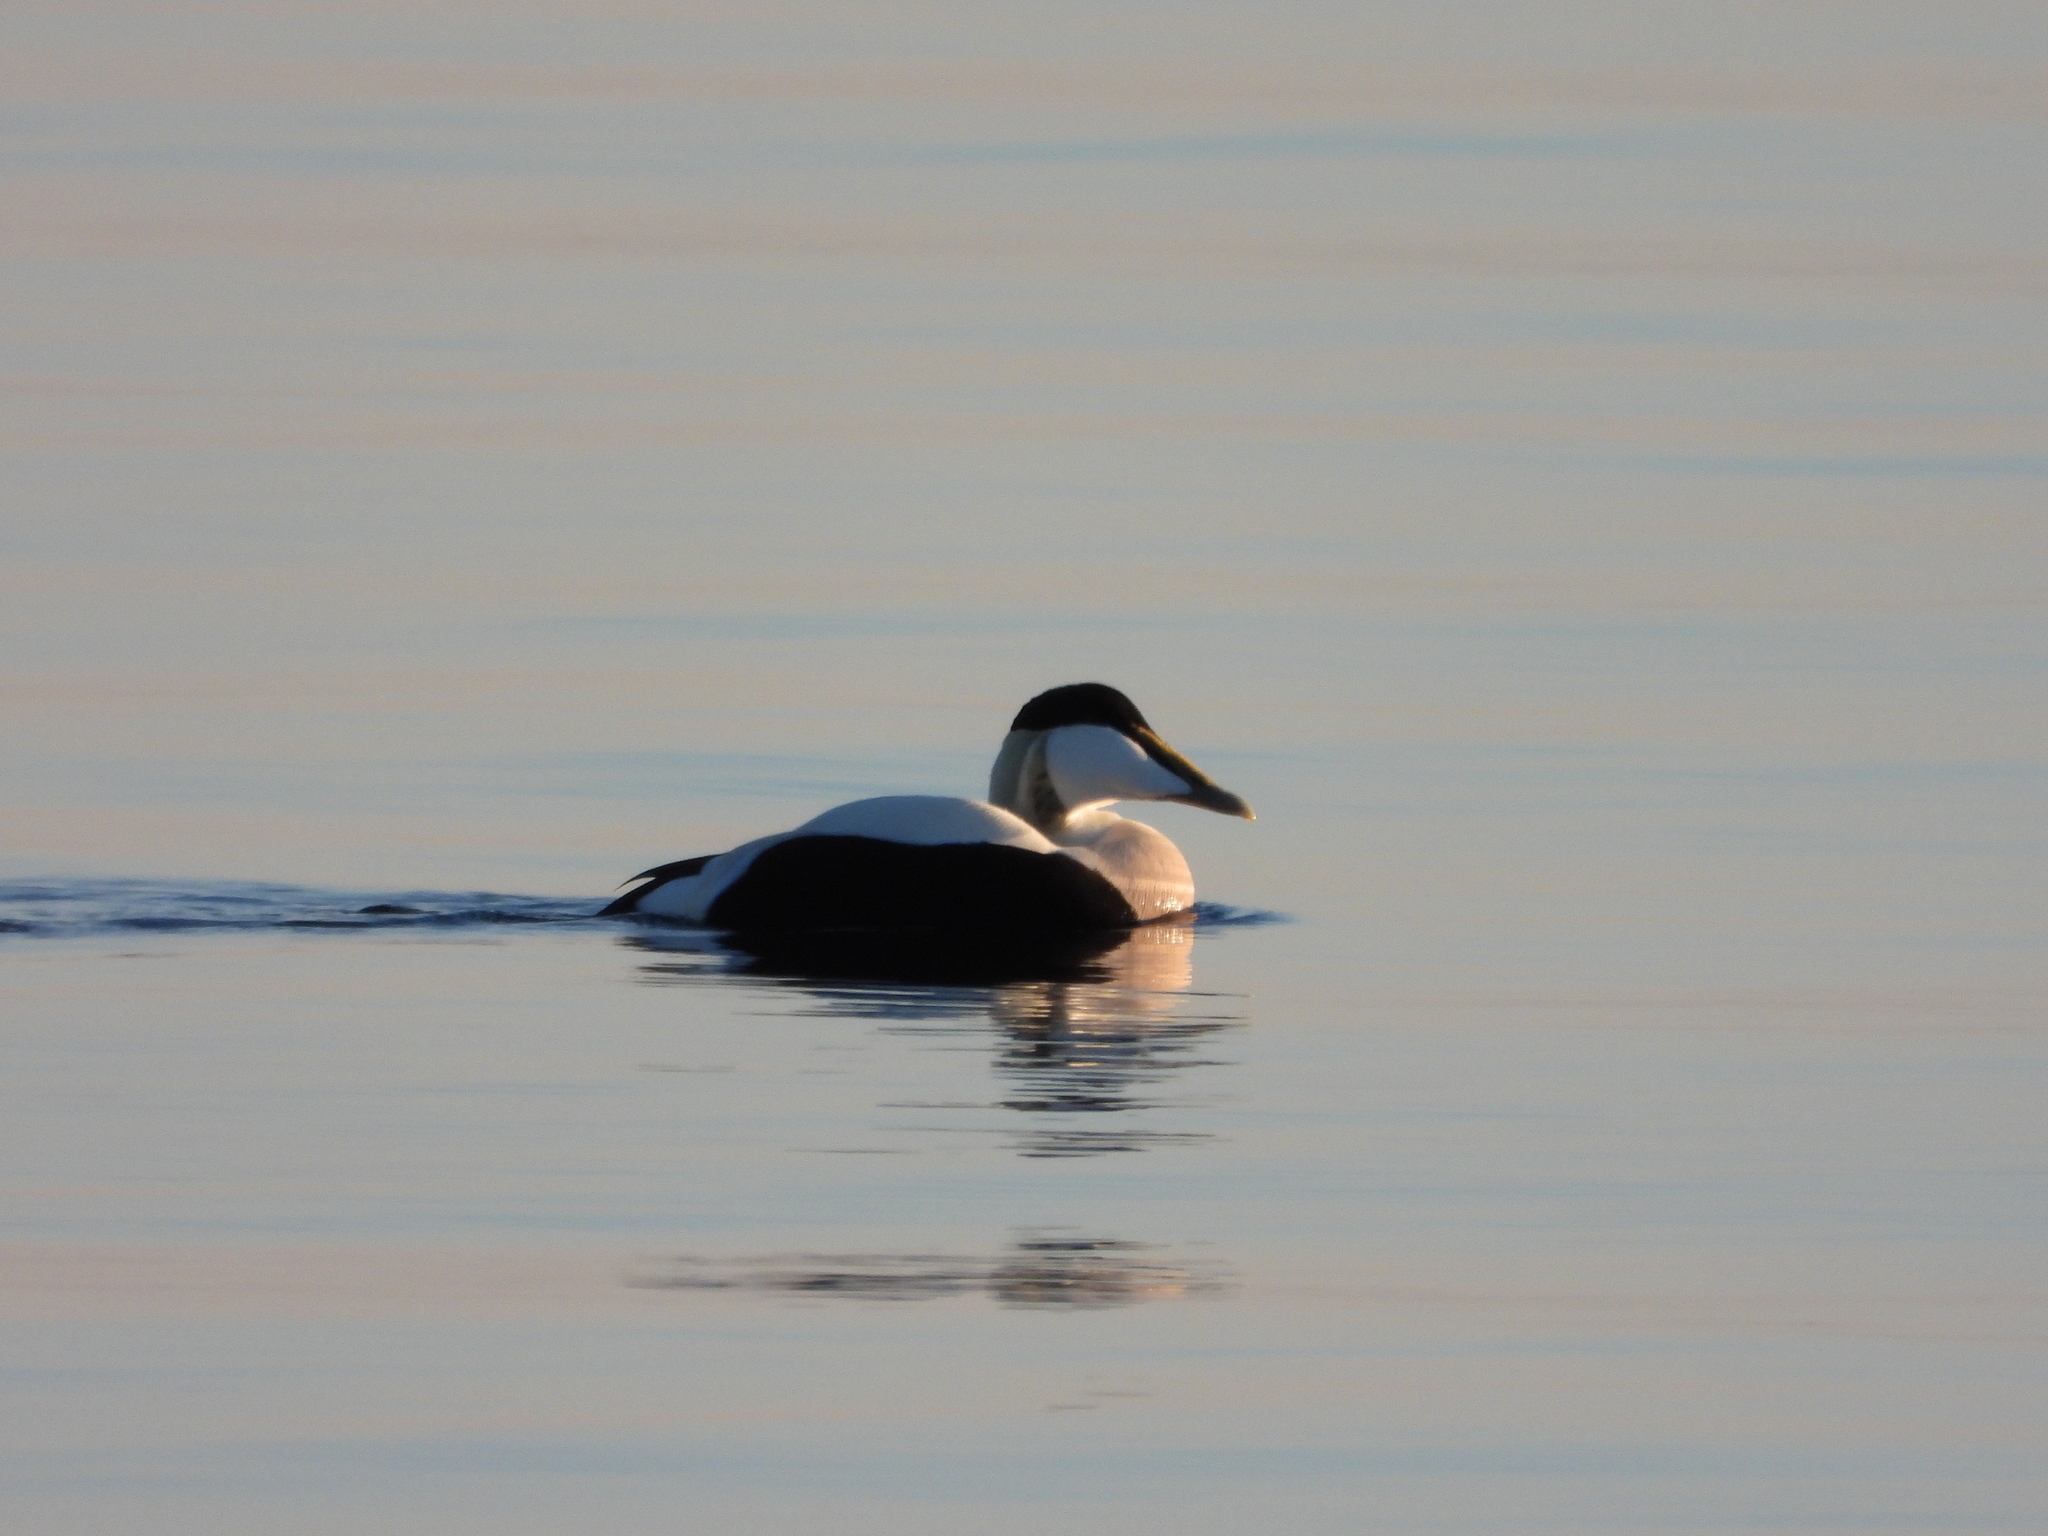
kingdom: Animalia
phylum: Chordata
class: Aves
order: Anseriformes
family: Anatidae
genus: Somateria
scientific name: Somateria mollissima
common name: Common eider
